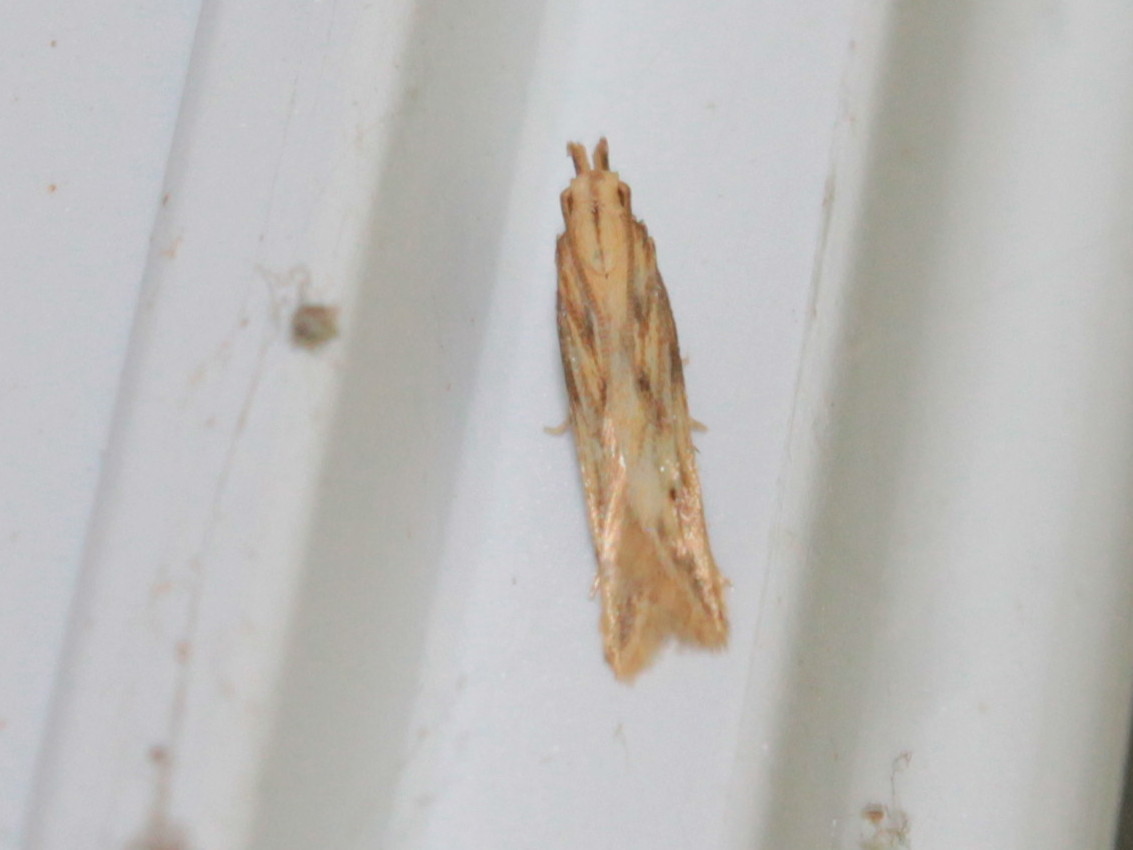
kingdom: Animalia
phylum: Arthropoda
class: Insecta
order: Lepidoptera
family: Gelechiidae
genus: Metzneria
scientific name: Metzneria lappella
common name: Burdock neb
